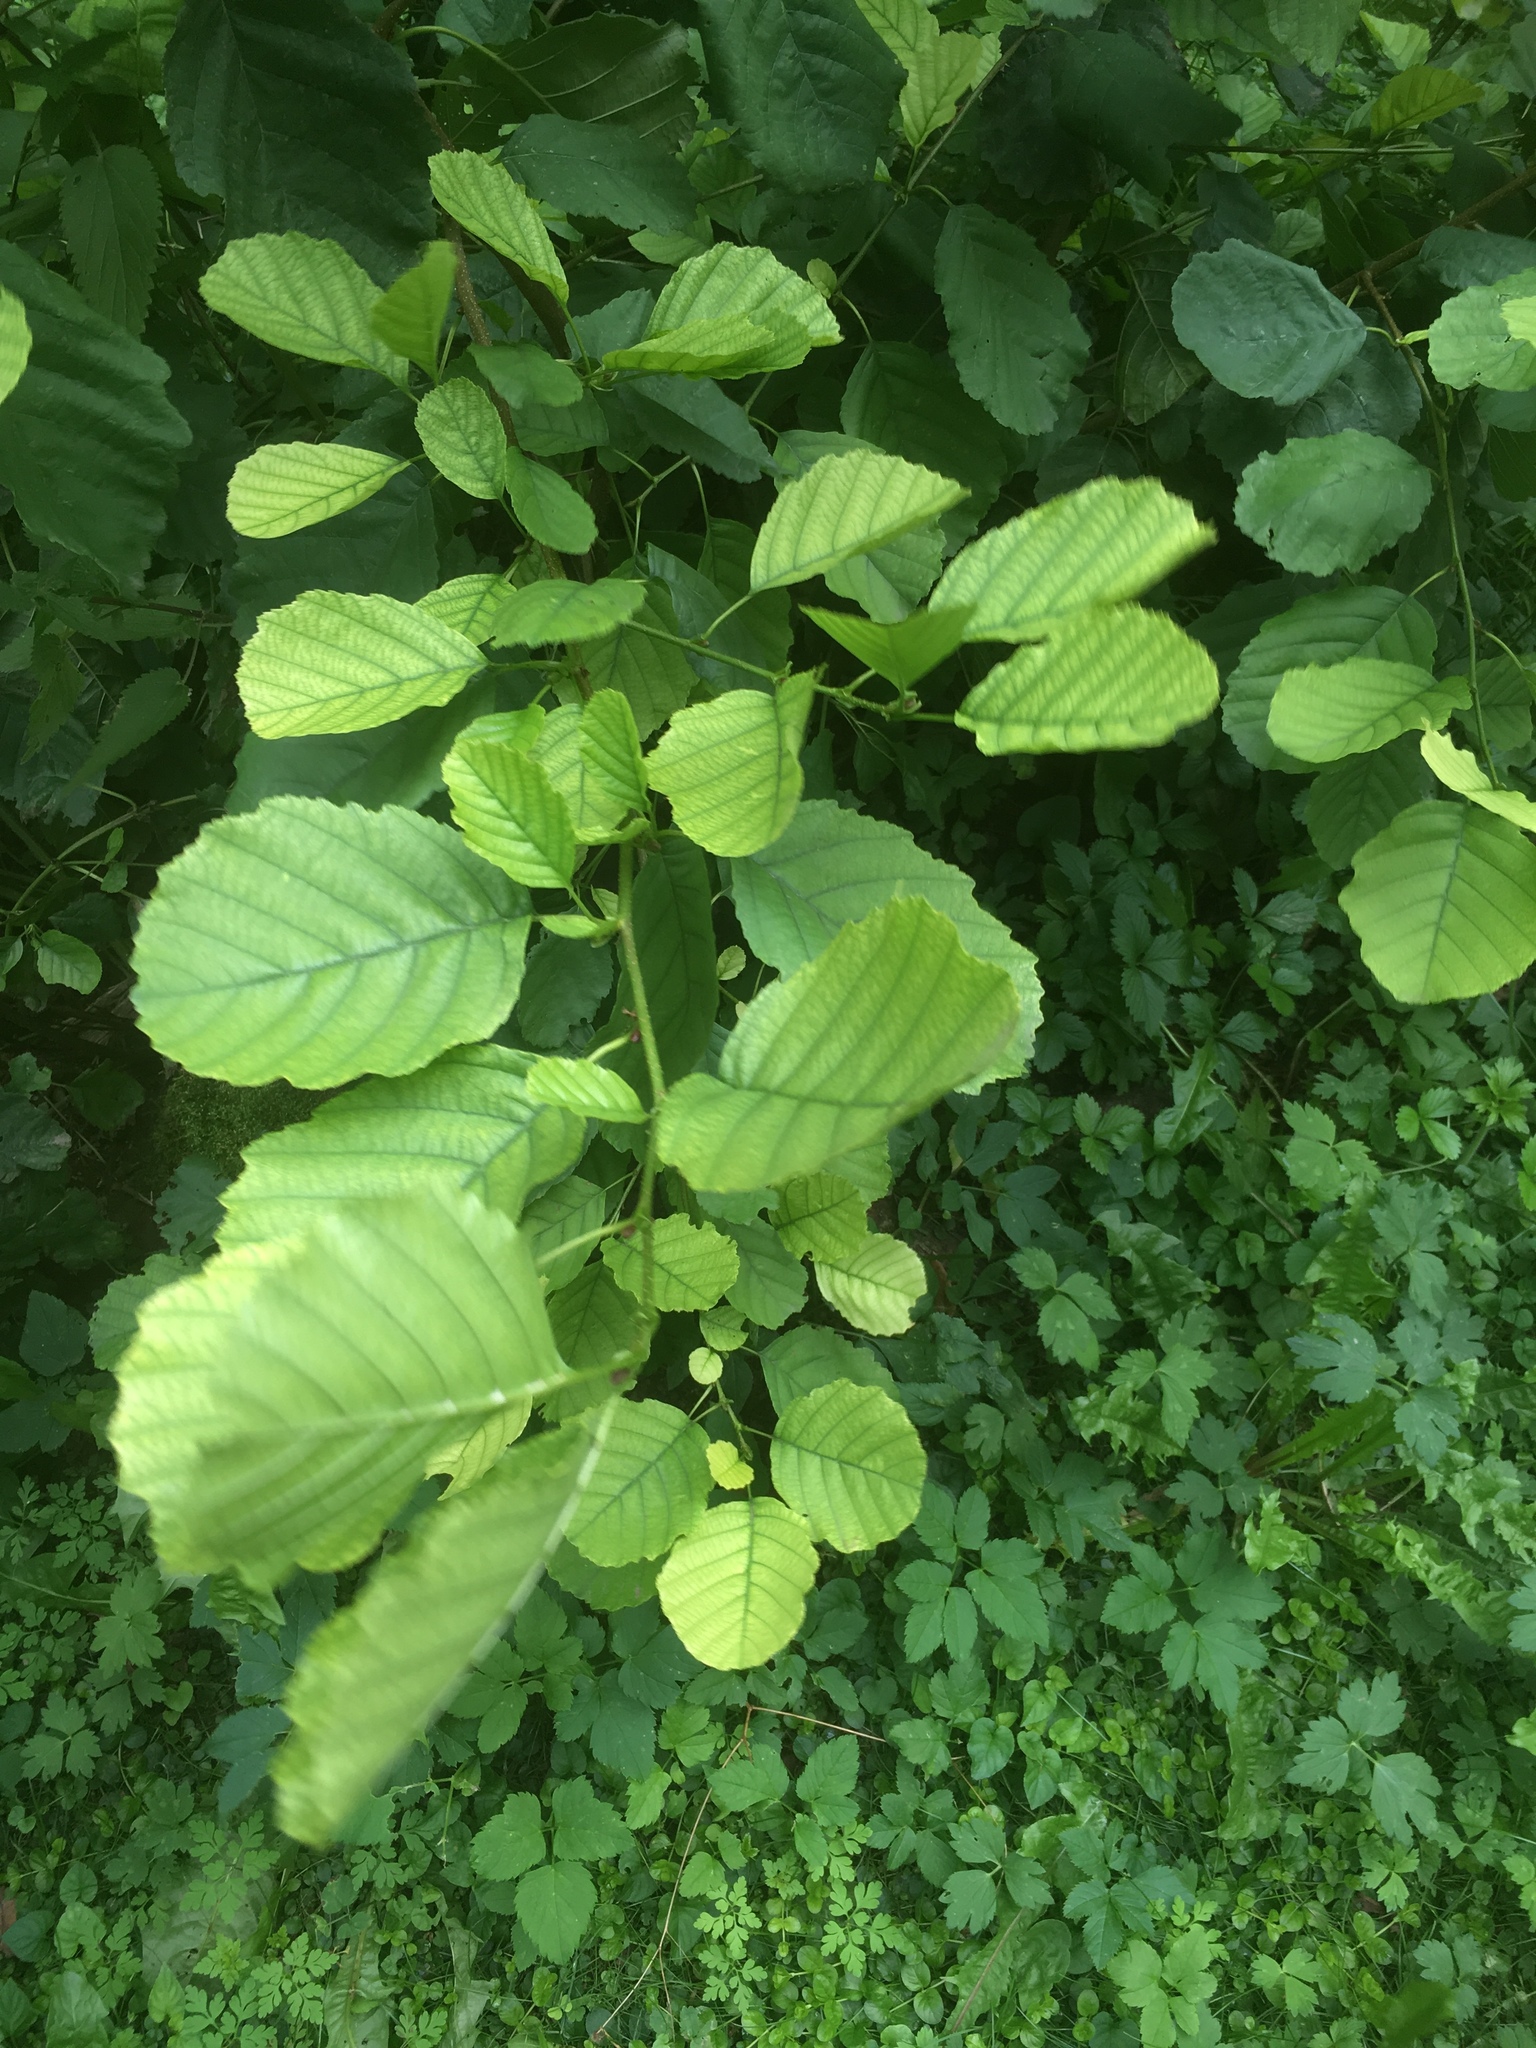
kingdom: Plantae
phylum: Tracheophyta
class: Magnoliopsida
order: Fagales
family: Betulaceae
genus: Alnus
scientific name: Alnus glutinosa
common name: Black alder
